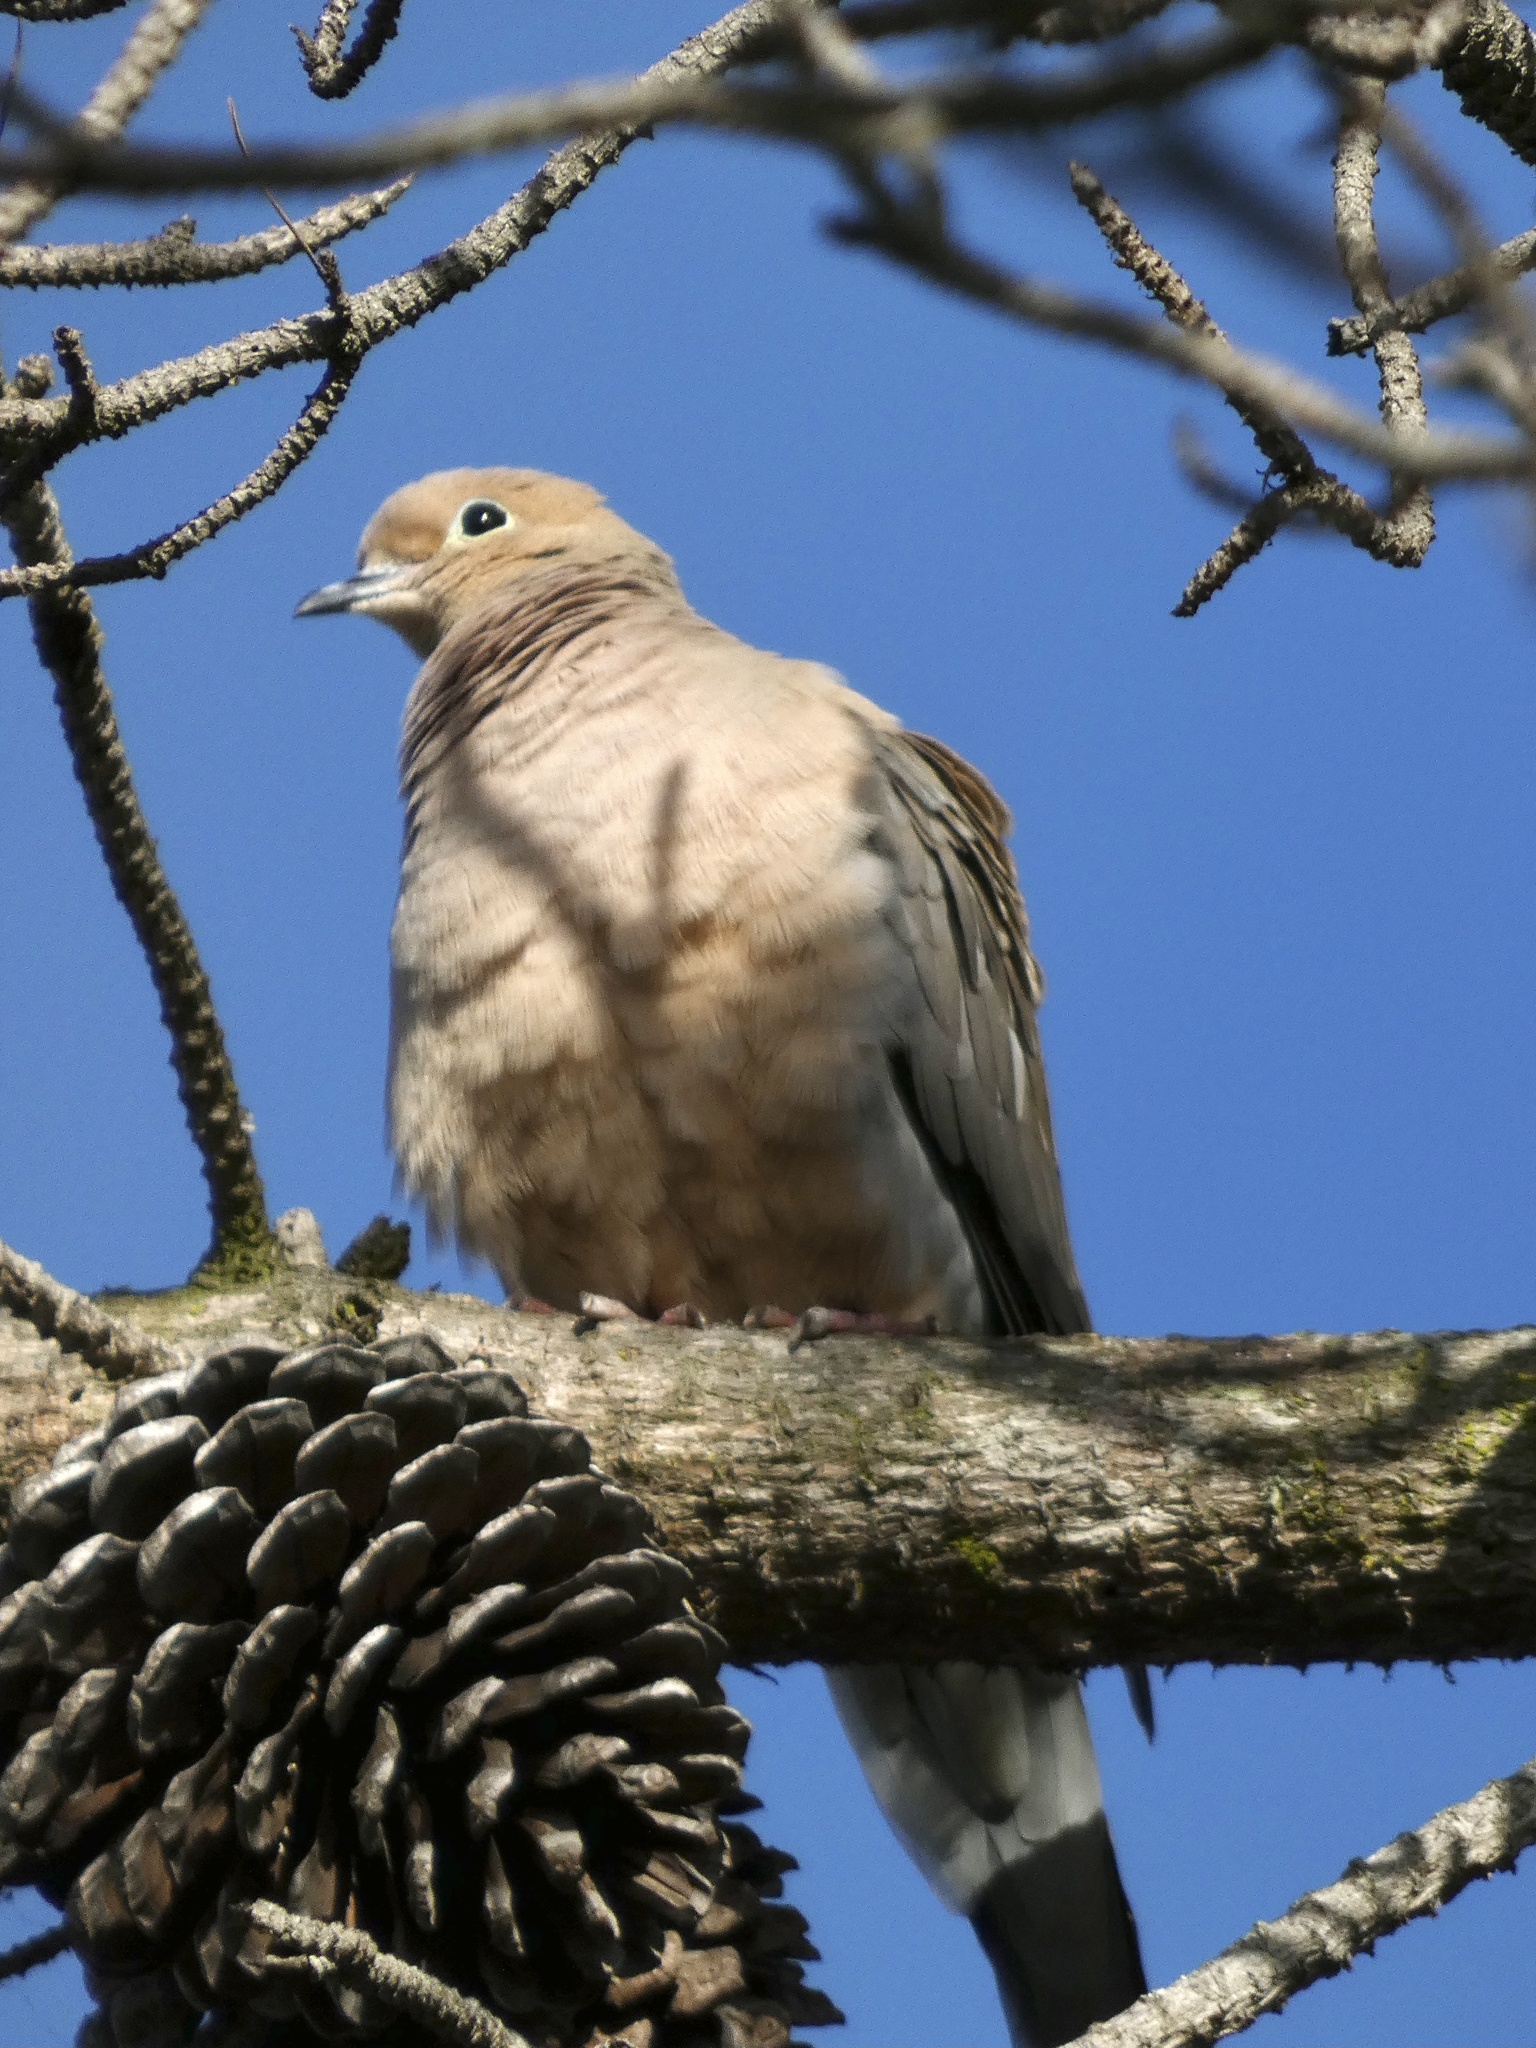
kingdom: Animalia
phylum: Chordata
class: Aves
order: Columbiformes
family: Columbidae
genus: Zenaida
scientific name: Zenaida macroura
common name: Mourning dove
